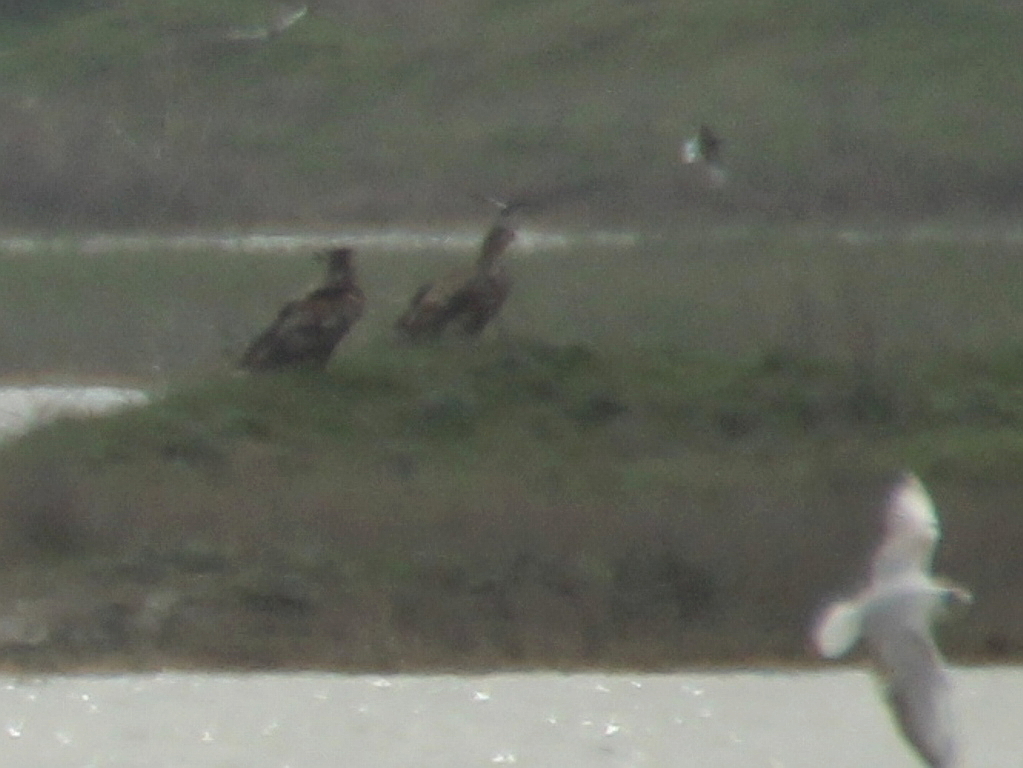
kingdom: Animalia
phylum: Chordata
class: Aves
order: Accipitriformes
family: Accipitridae
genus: Haliaeetus
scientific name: Haliaeetus albicilla
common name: White-tailed eagle
